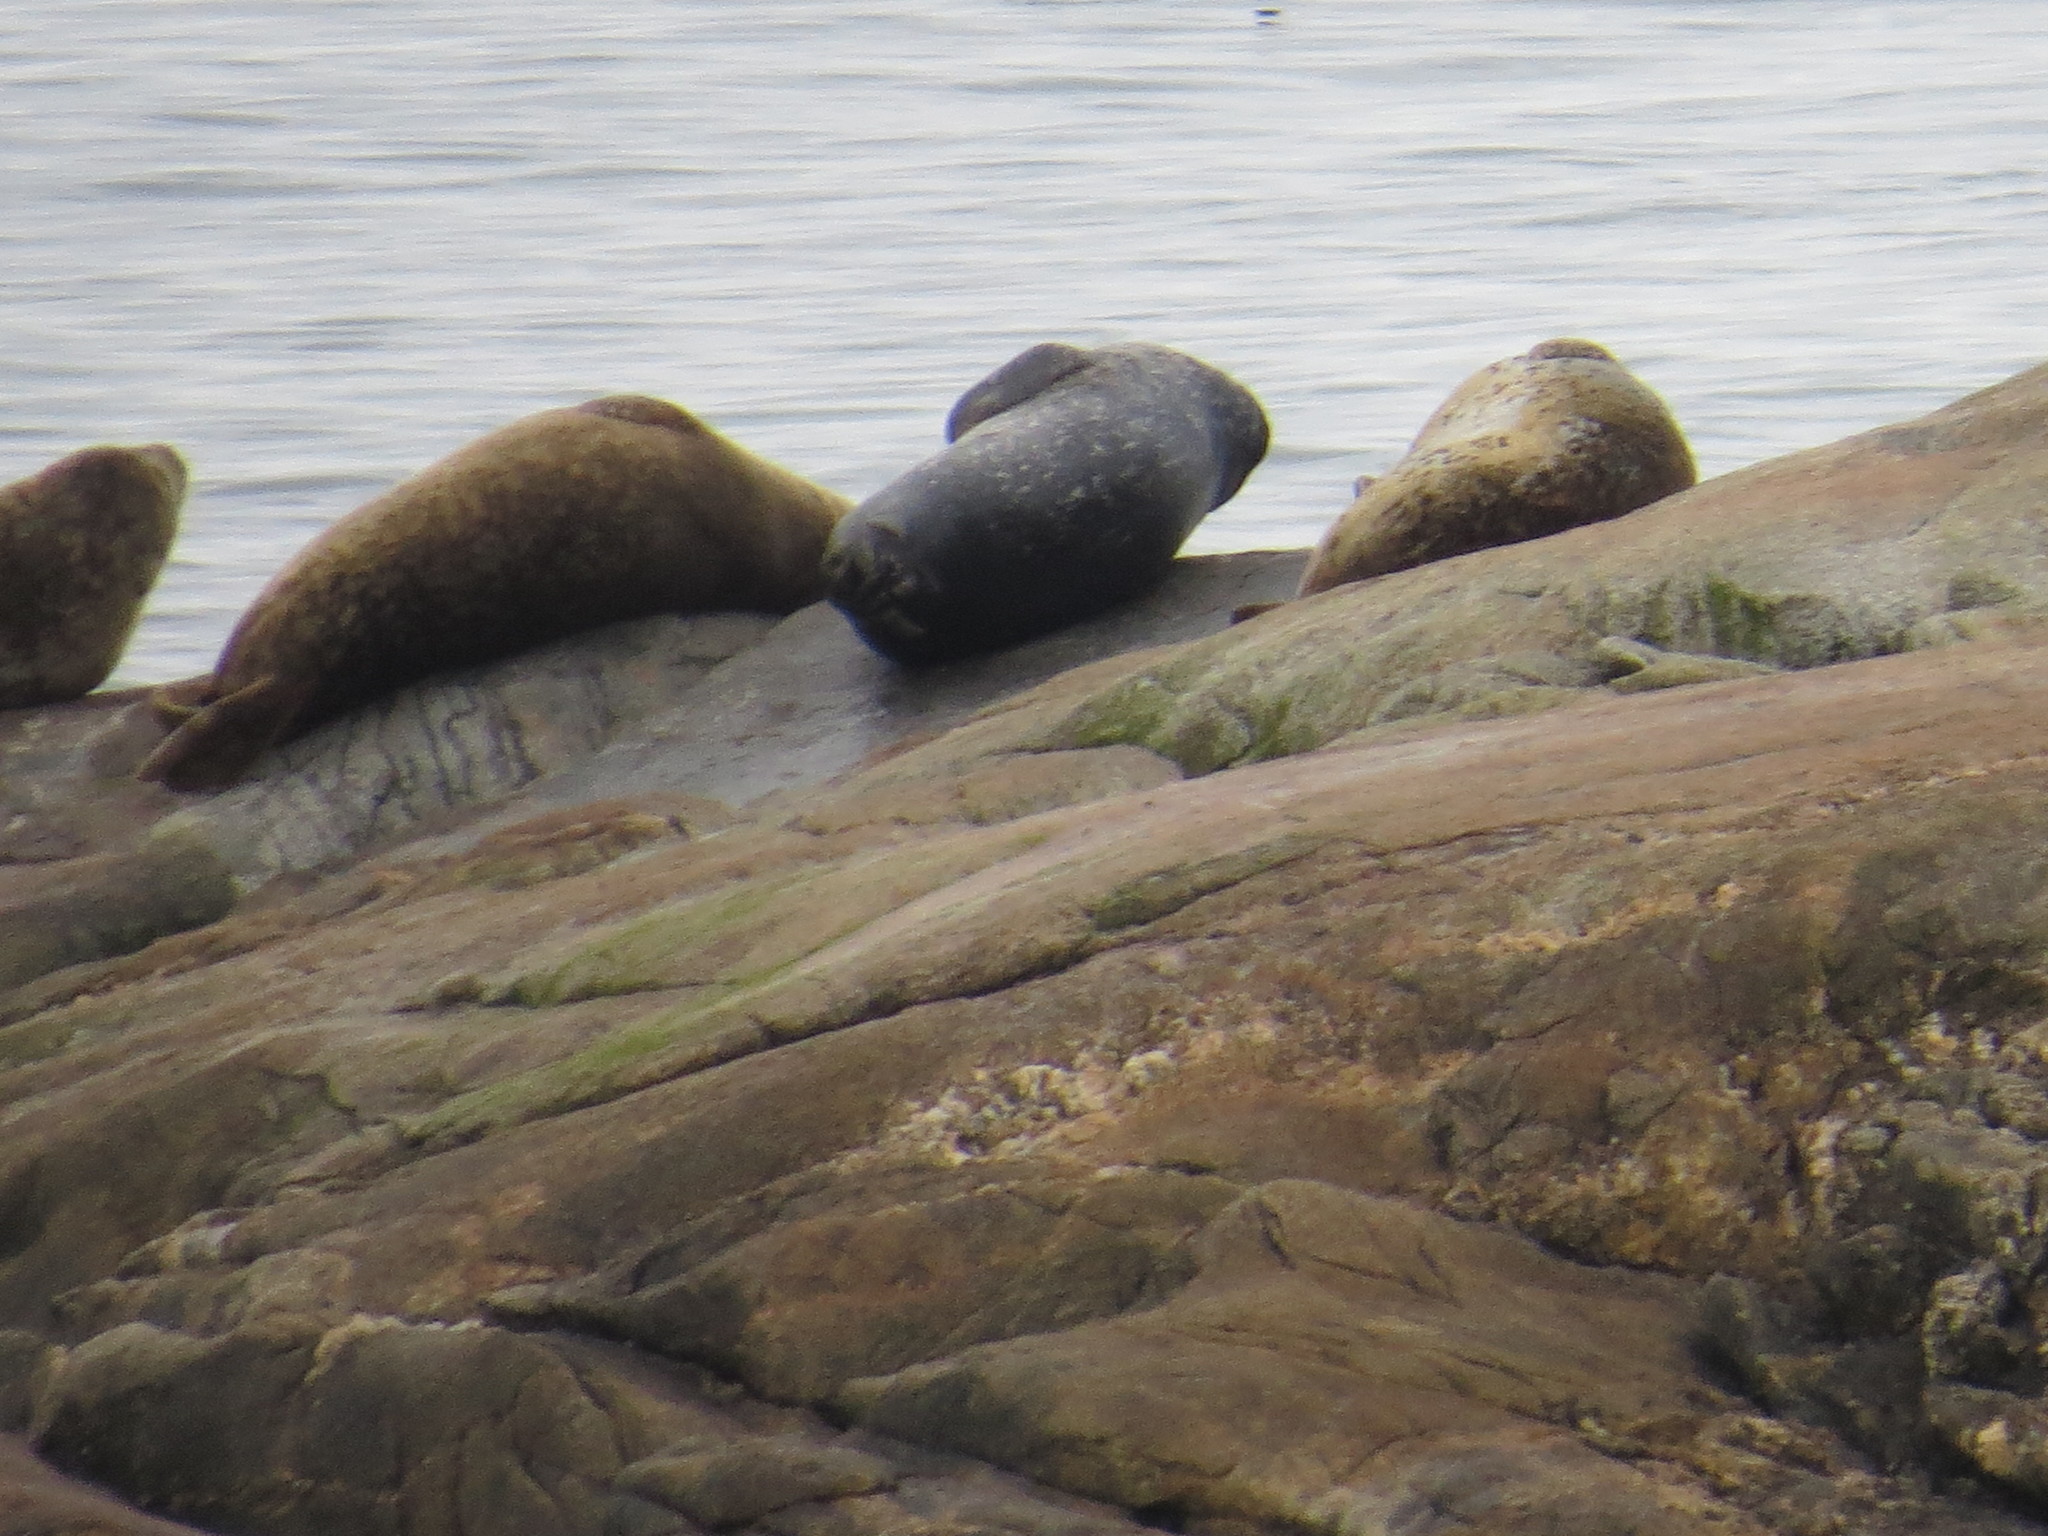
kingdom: Animalia
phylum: Chordata
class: Mammalia
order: Carnivora
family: Phocidae
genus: Phoca
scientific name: Phoca vitulina
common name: Harbor seal
